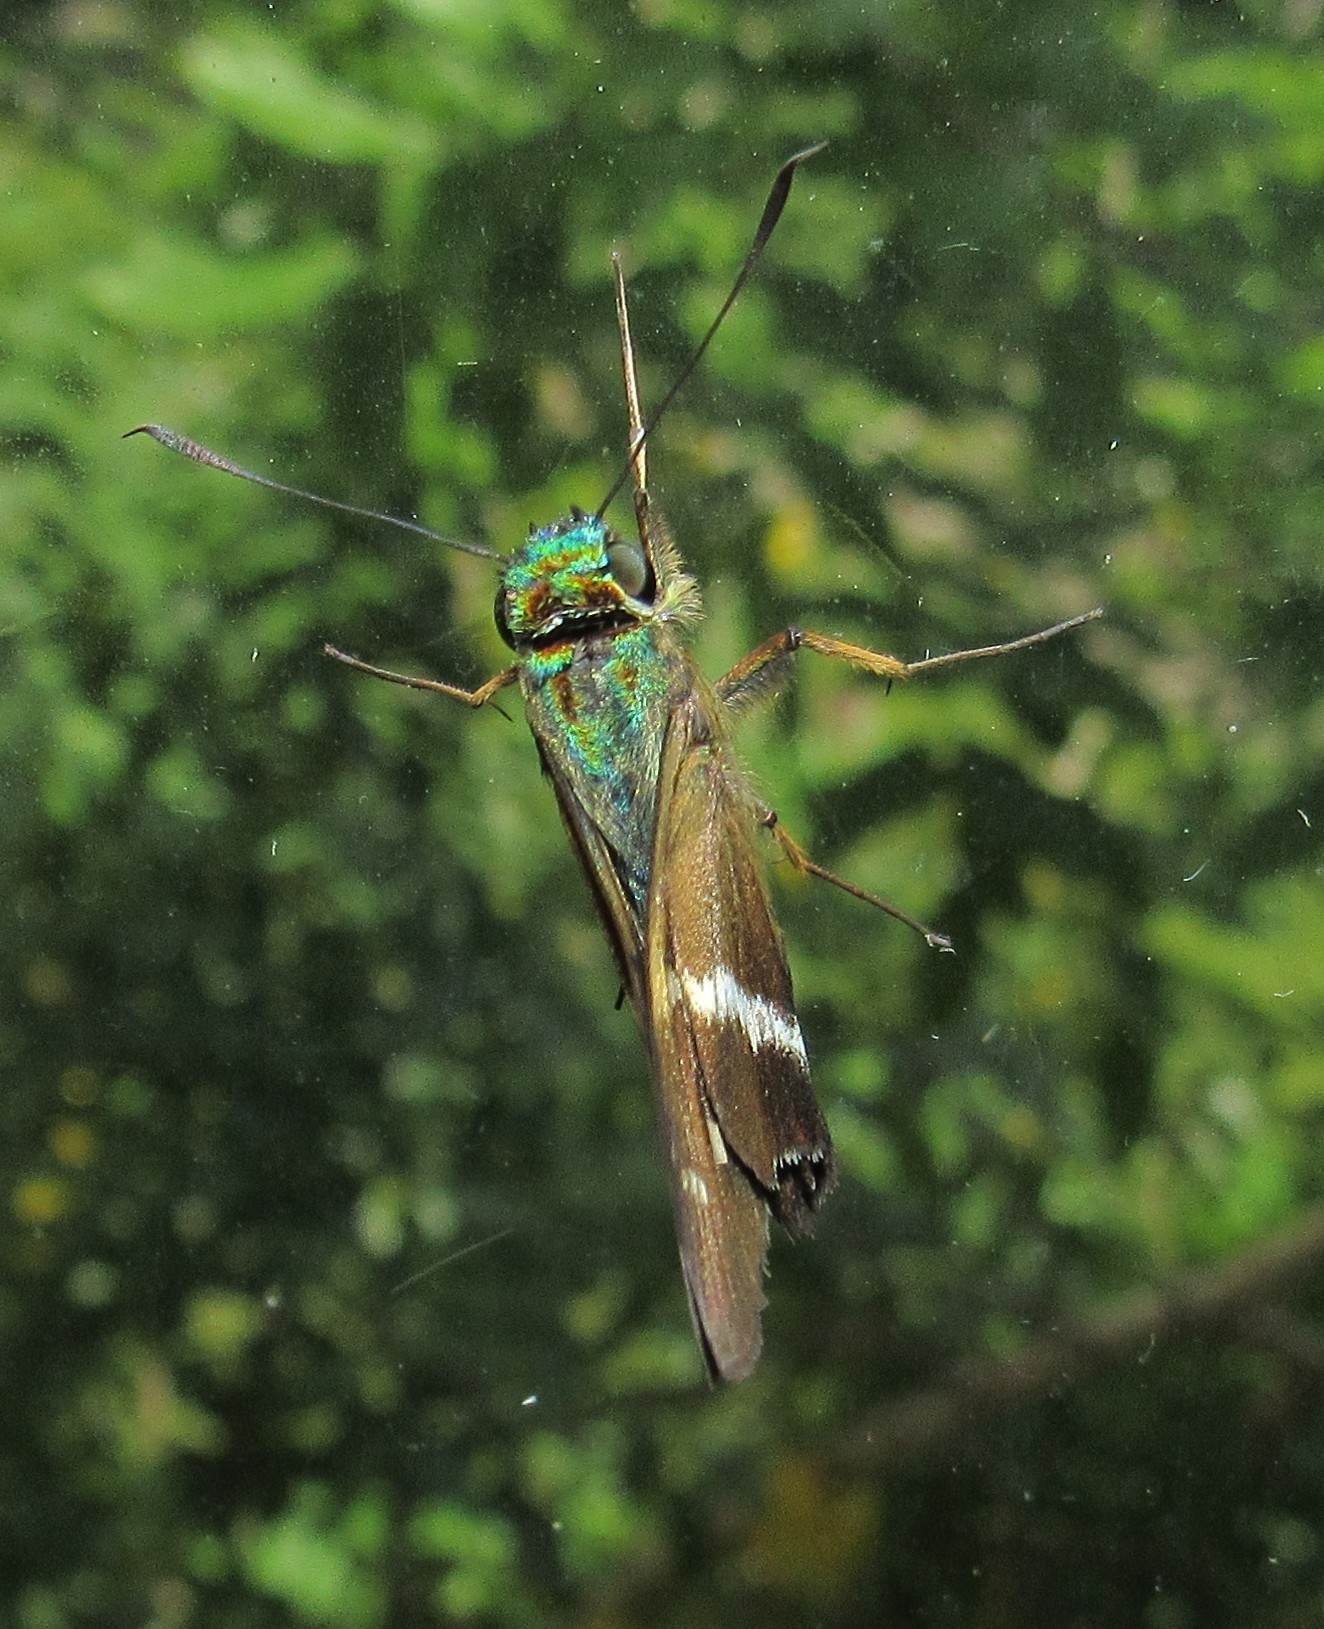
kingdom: Animalia
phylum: Arthropoda
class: Insecta
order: Lepidoptera
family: Hesperiidae
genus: Niconiades
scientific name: Niconiades xanthaphes
